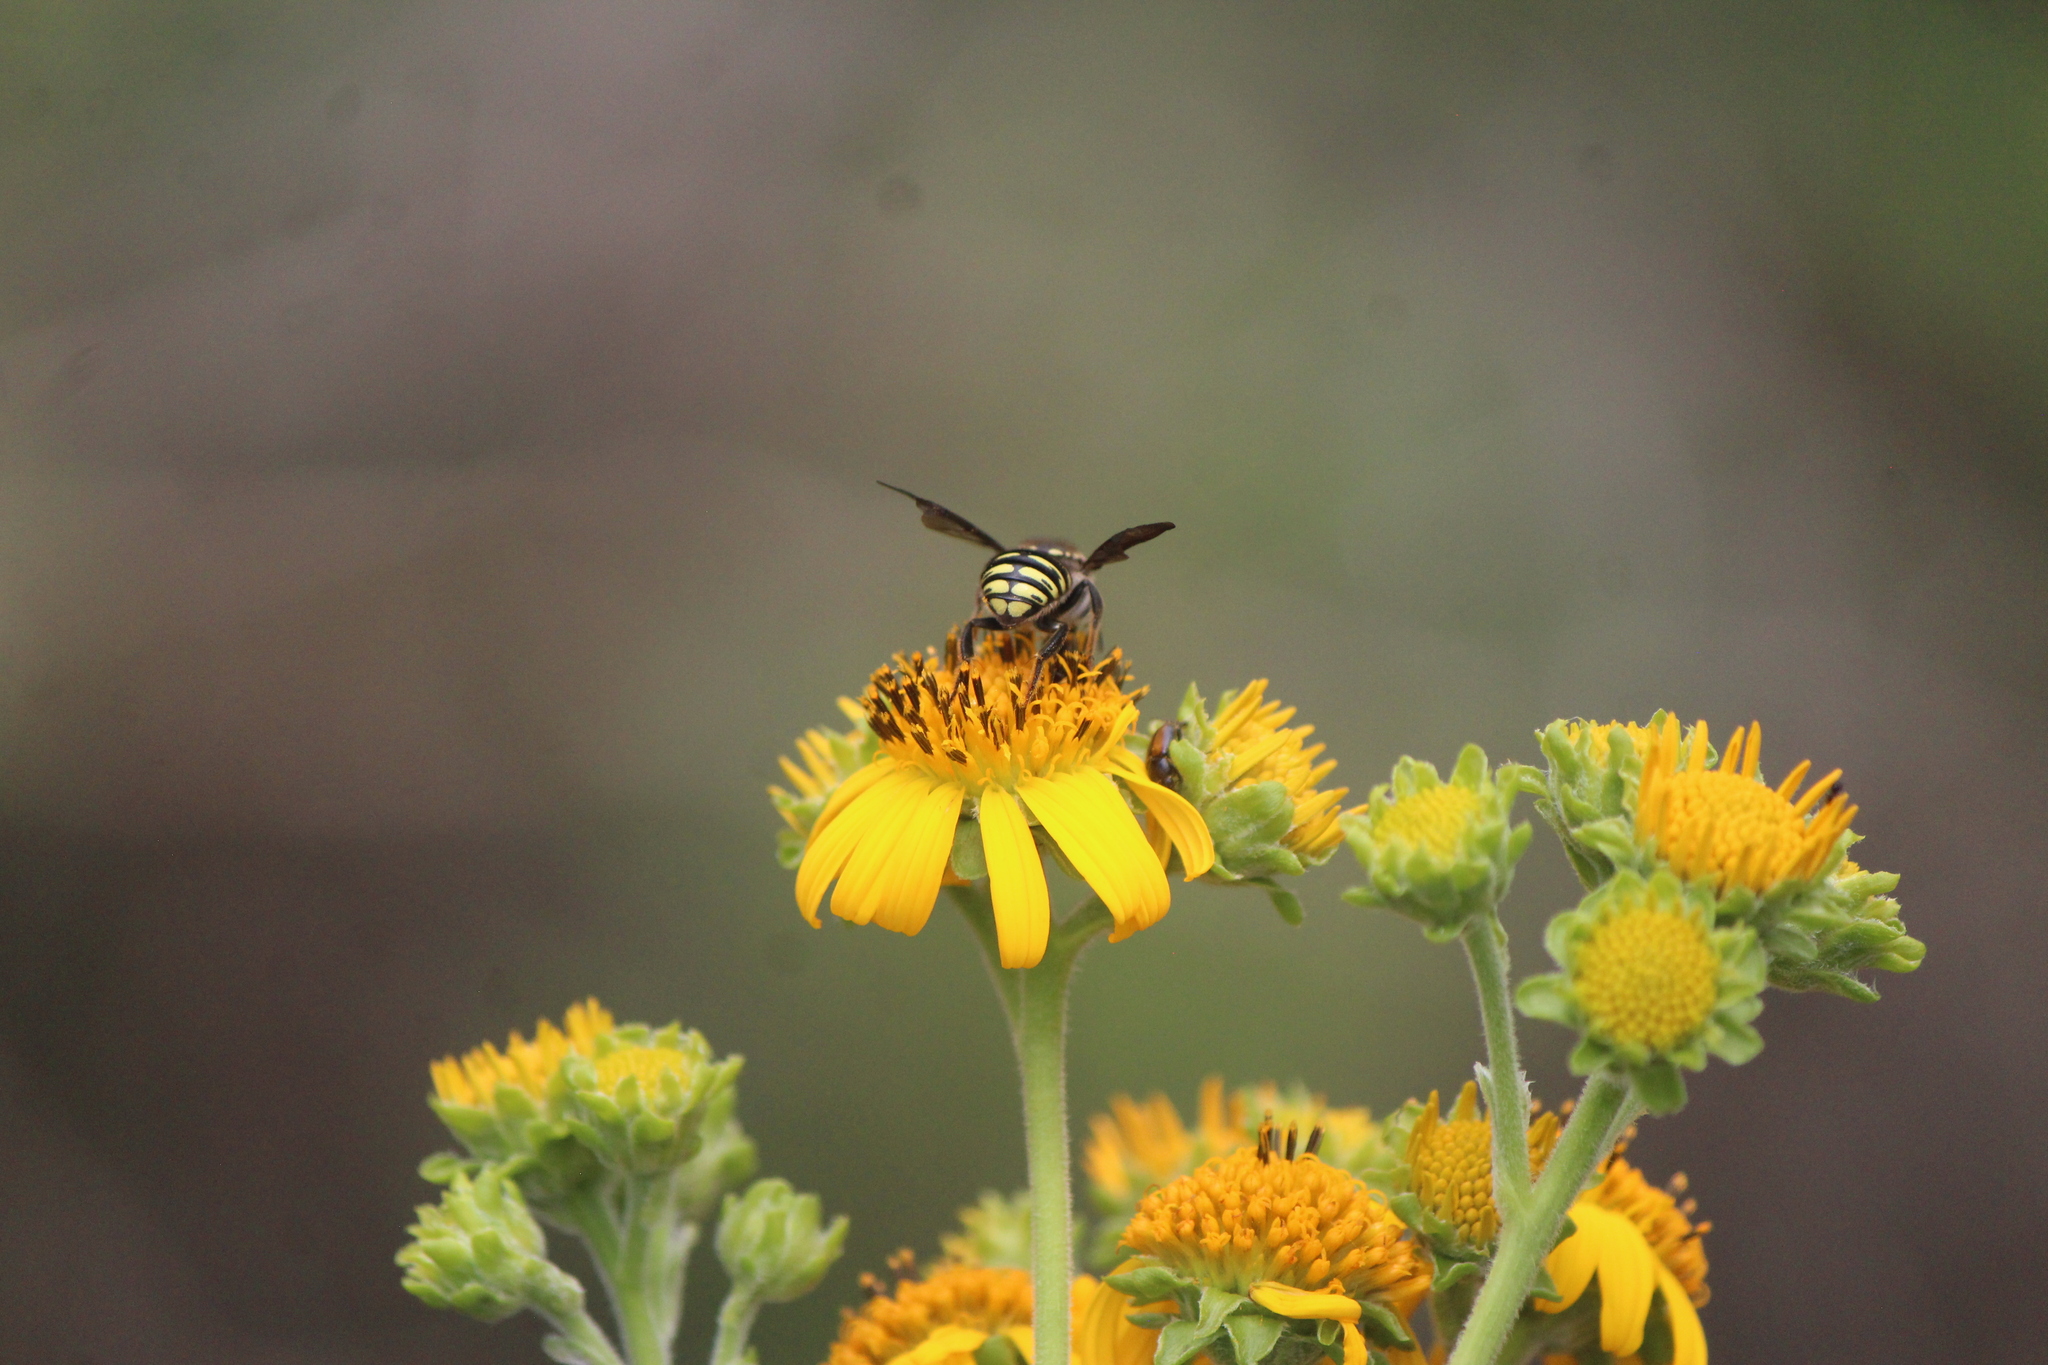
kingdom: Animalia
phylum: Arthropoda
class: Insecta
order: Hymenoptera
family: Megachilidae
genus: Paranthidium
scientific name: Paranthidium gabbii
